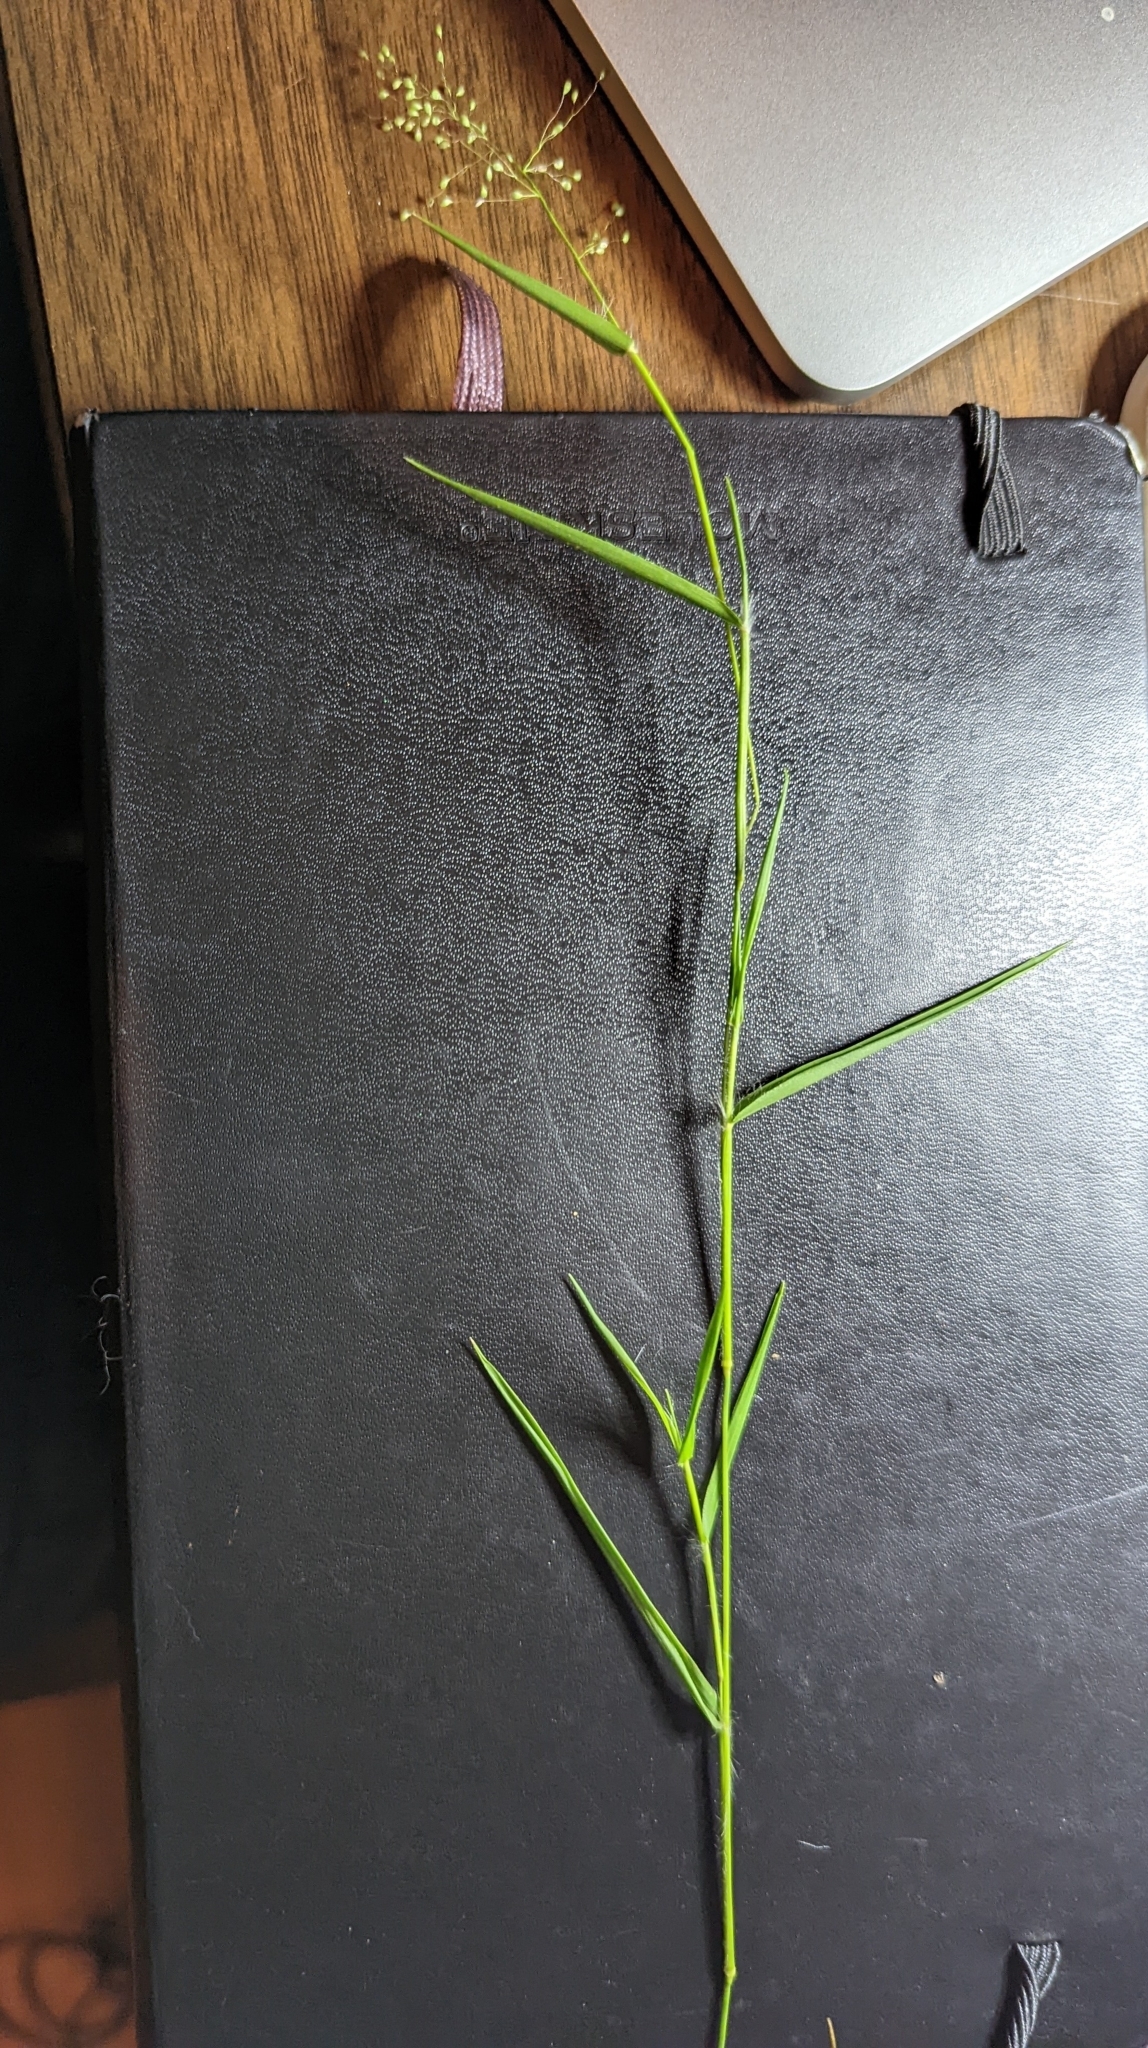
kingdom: Plantae
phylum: Tracheophyta
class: Liliopsida
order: Poales
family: Poaceae
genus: Dichanthelium
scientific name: Dichanthelium lindheimeri
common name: Lindheimer's panicgrass
